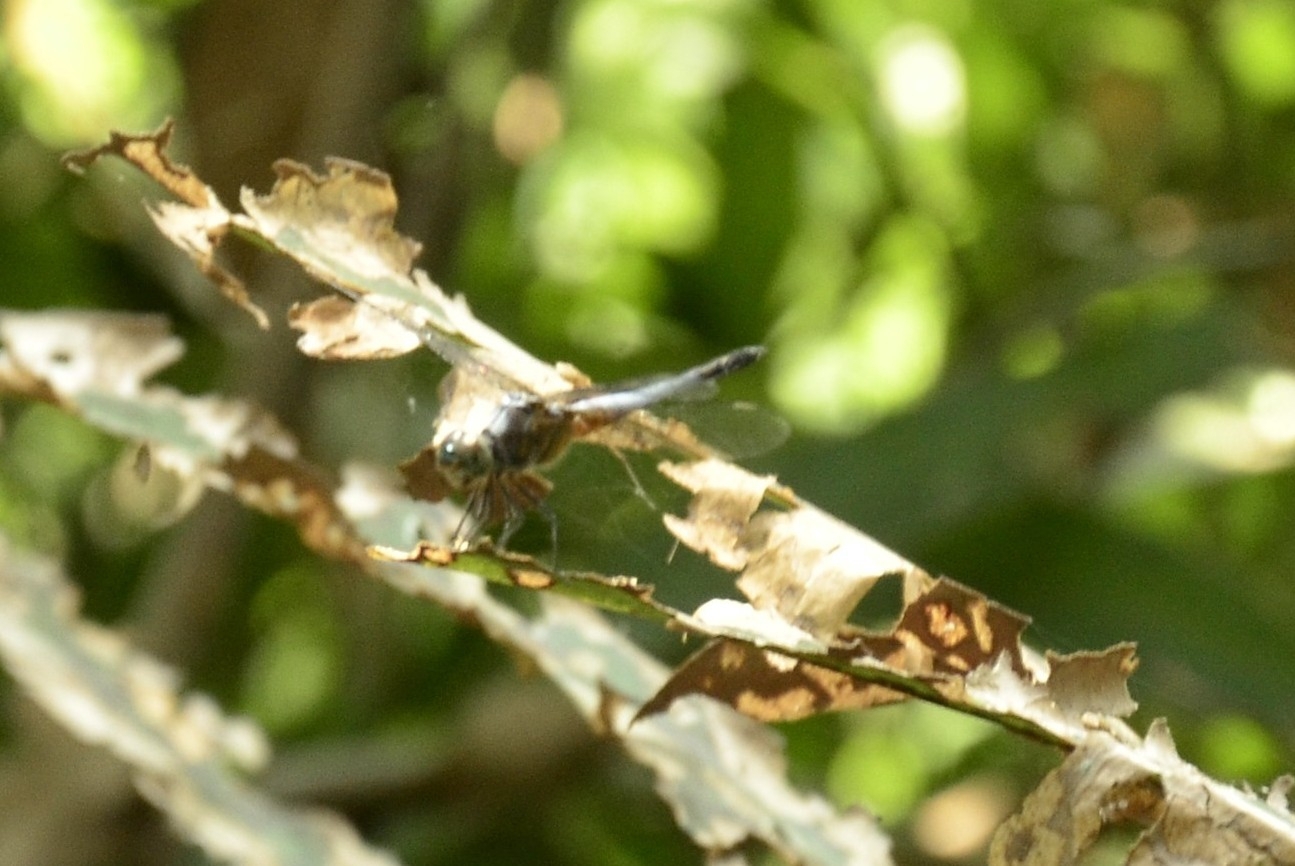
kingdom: Animalia
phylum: Arthropoda
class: Insecta
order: Odonata
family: Libellulidae
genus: Brachydiplax
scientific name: Brachydiplax chalybea
